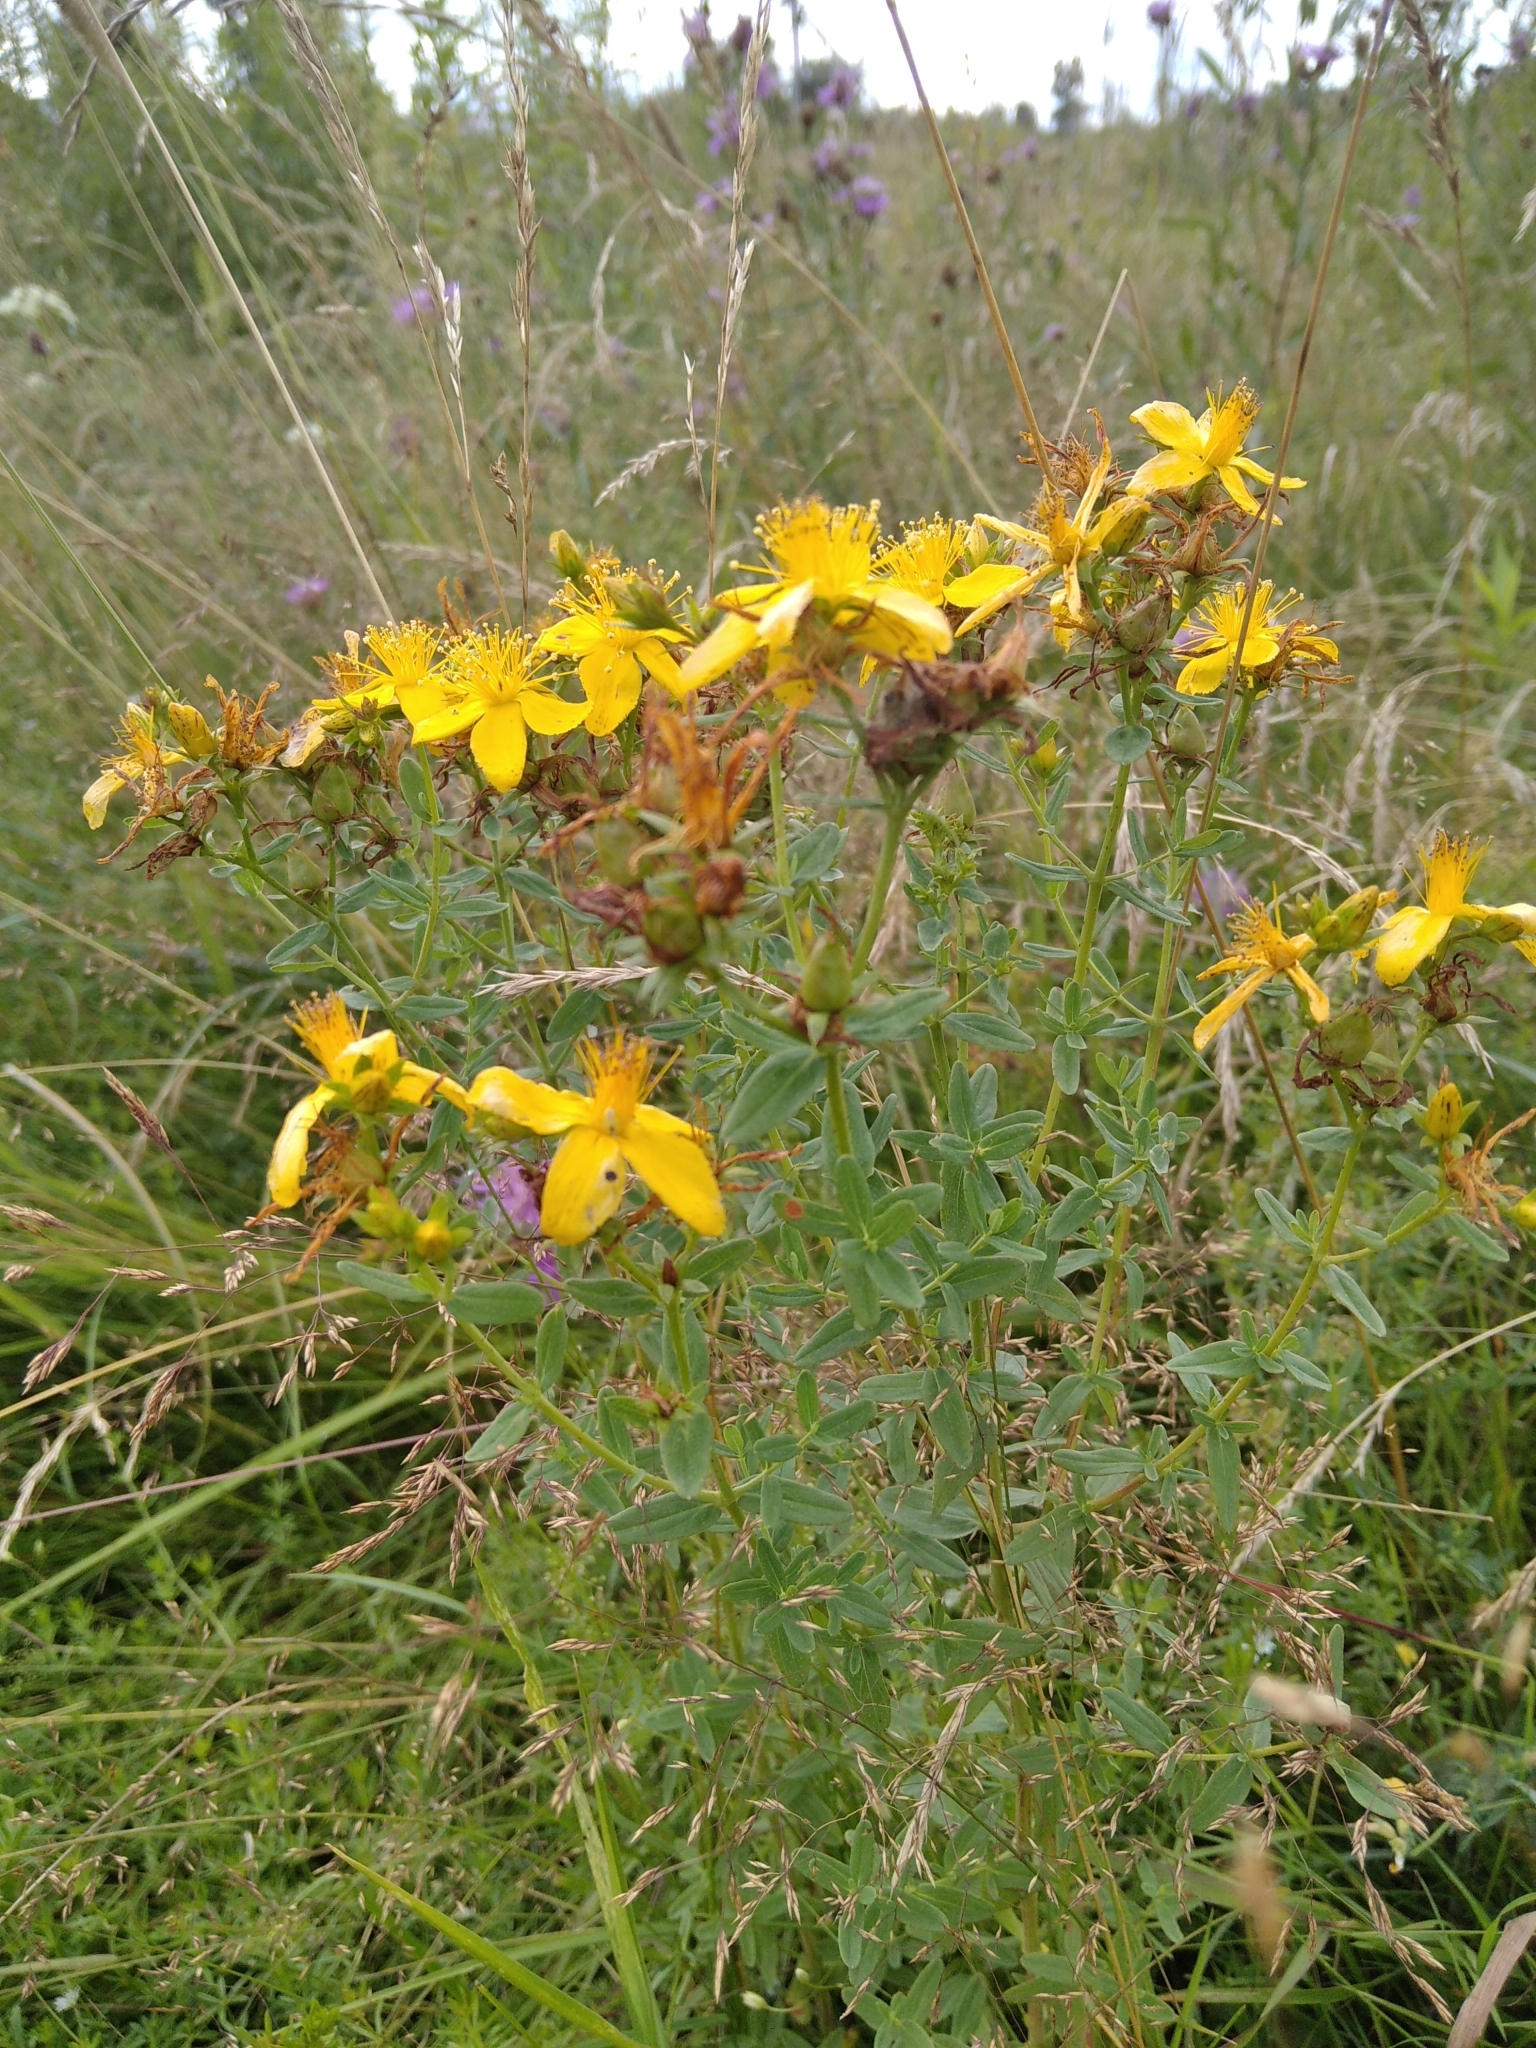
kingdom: Plantae
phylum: Tracheophyta
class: Magnoliopsida
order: Malpighiales
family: Hypericaceae
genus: Hypericum
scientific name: Hypericum perforatum
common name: Common st. johnswort
